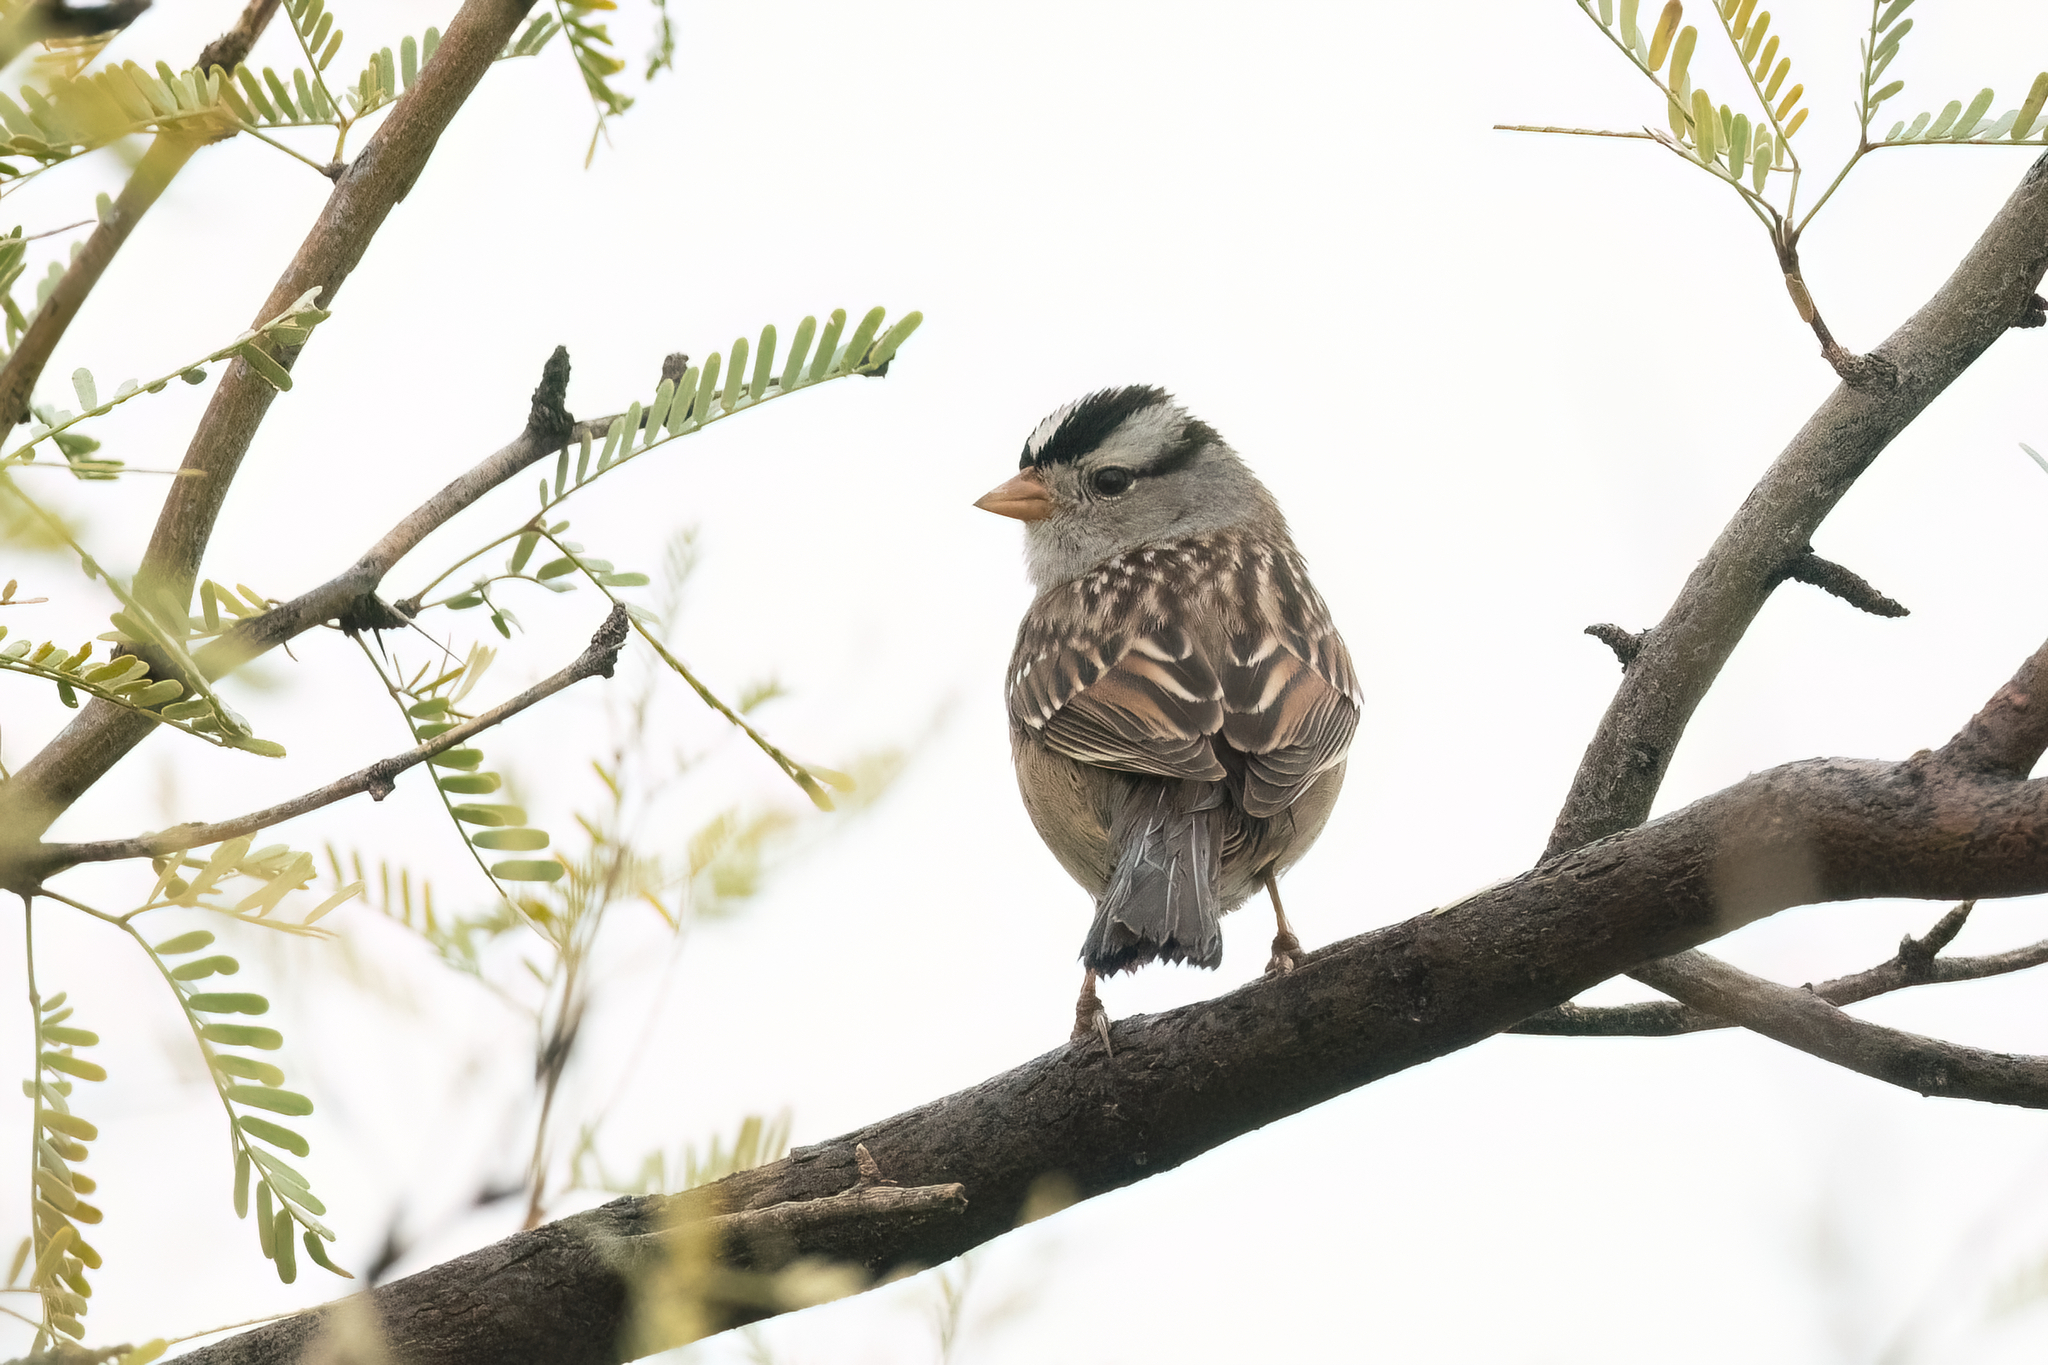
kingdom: Animalia
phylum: Chordata
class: Aves
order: Passeriformes
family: Passerellidae
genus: Zonotrichia
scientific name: Zonotrichia leucophrys
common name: White-crowned sparrow
